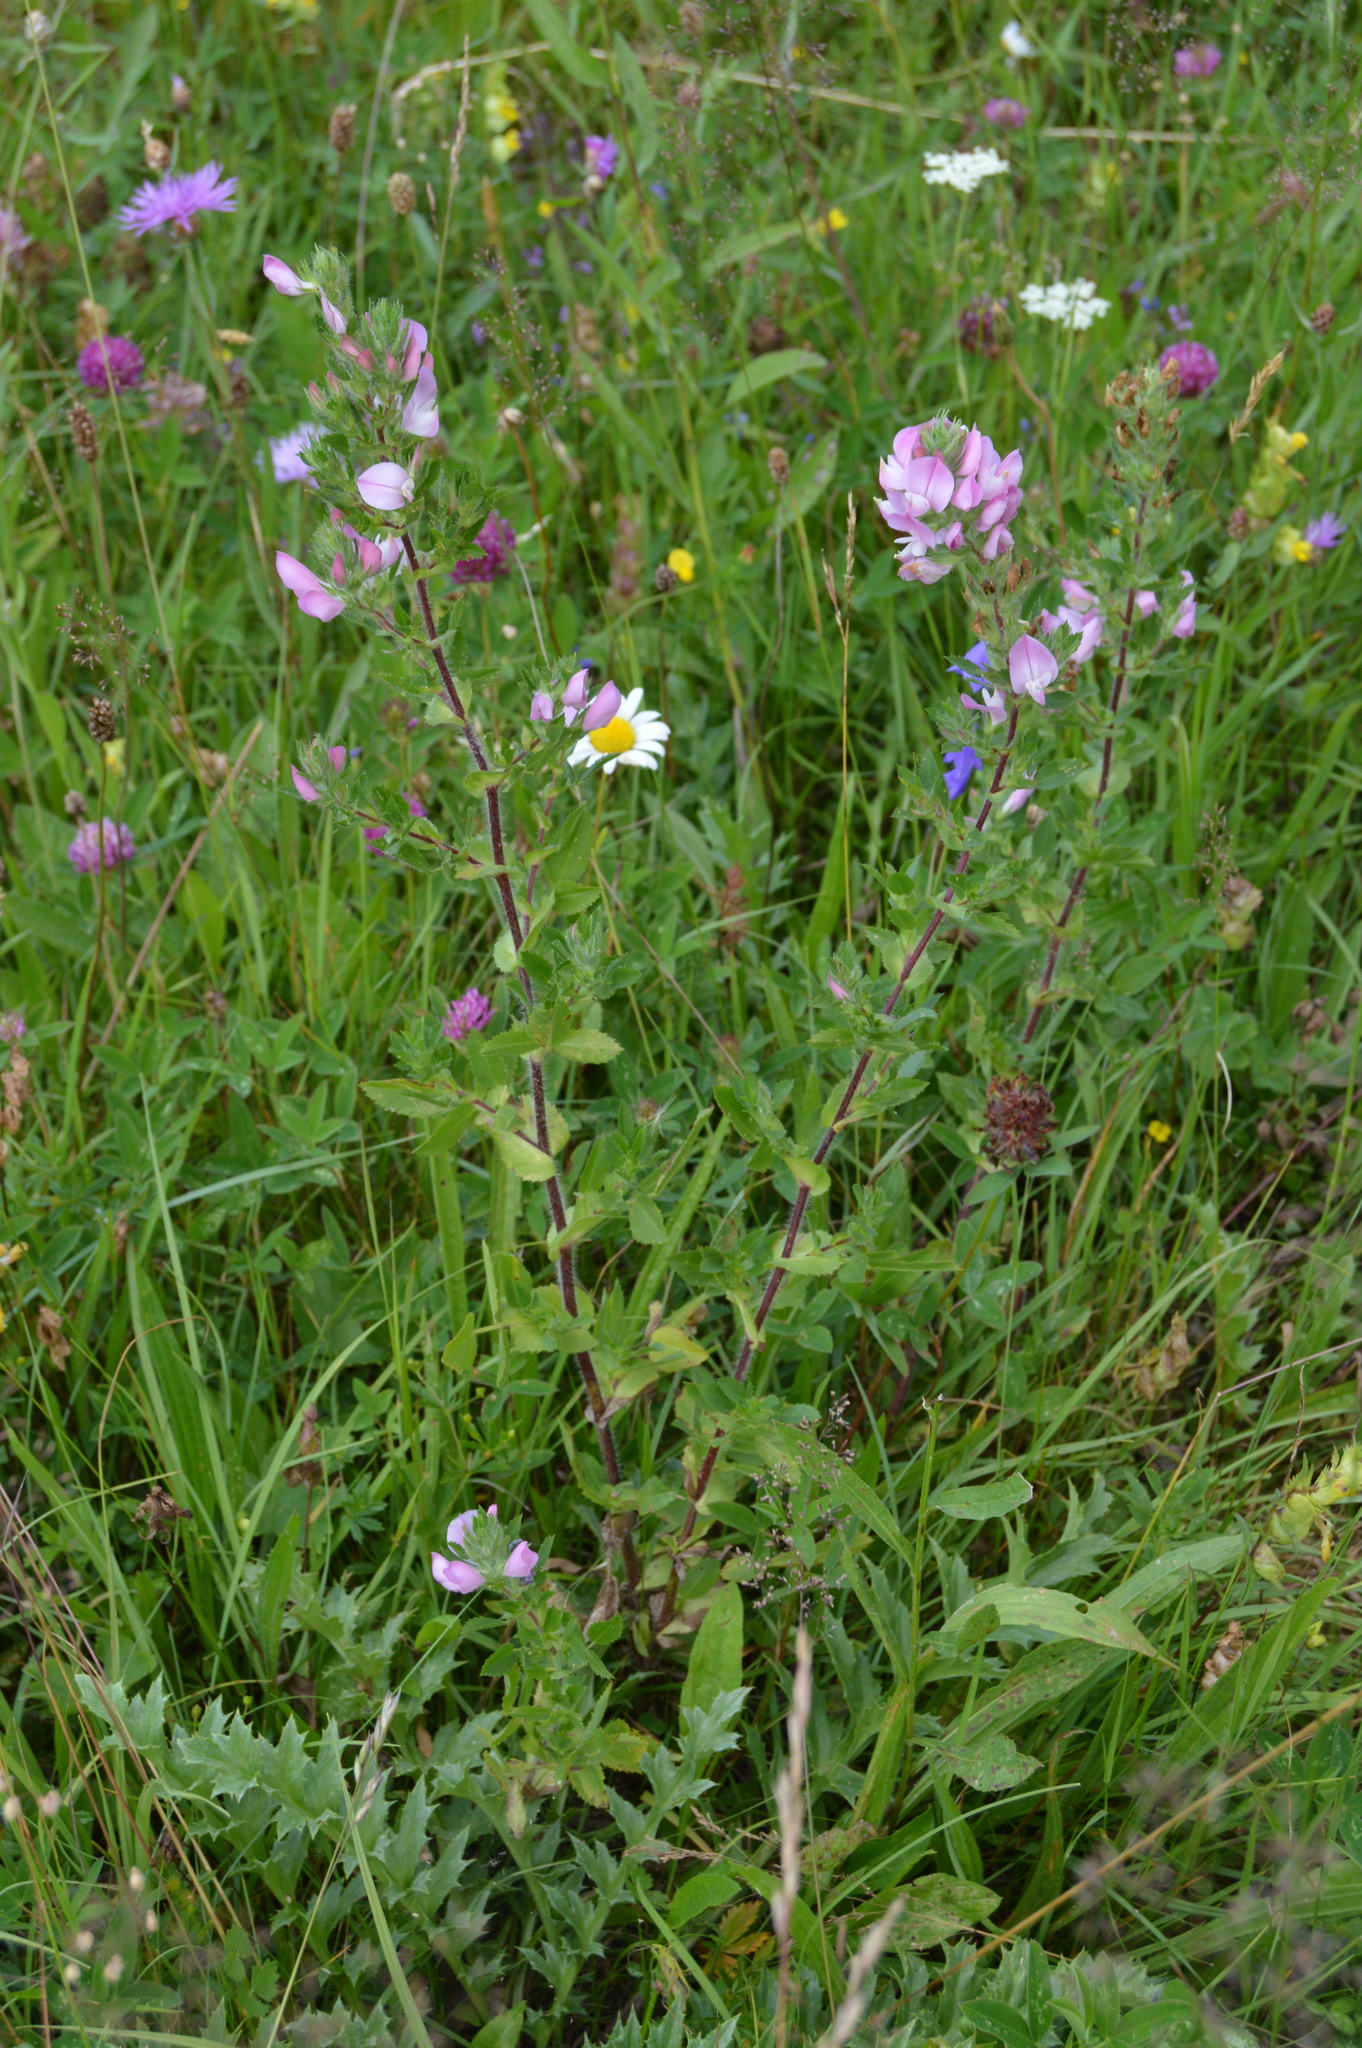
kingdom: Plantae
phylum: Tracheophyta
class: Magnoliopsida
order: Fabales
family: Fabaceae
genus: Ononis
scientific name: Ononis arvensis
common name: Field restharrow
